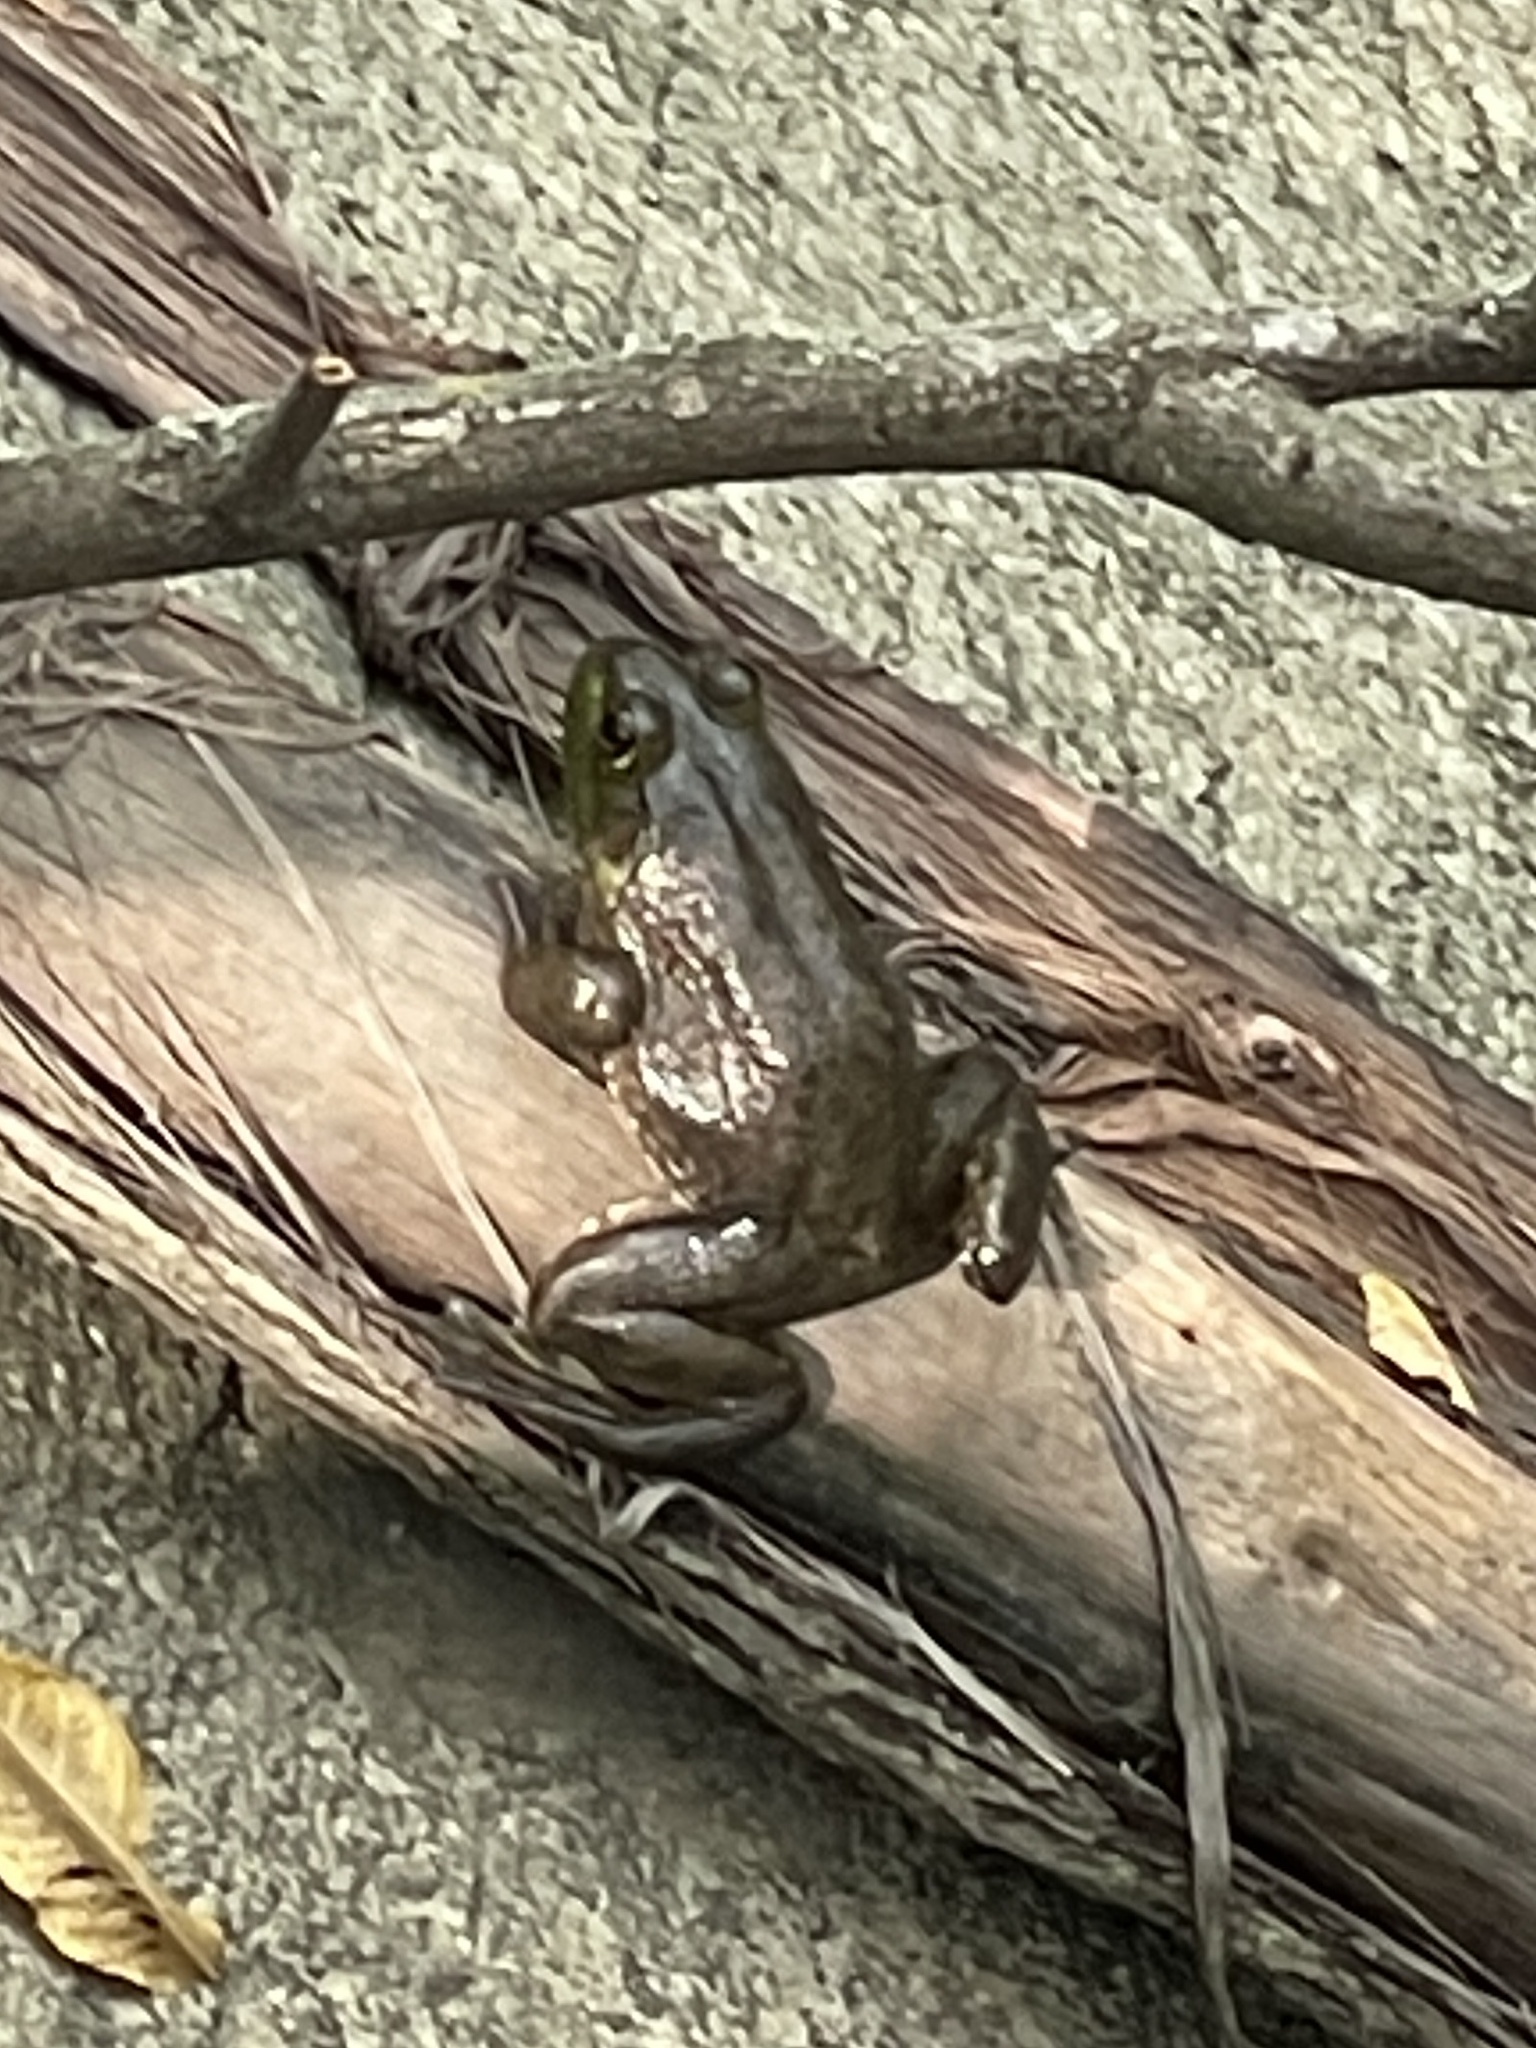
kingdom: Animalia
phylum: Chordata
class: Amphibia
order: Anura
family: Ranidae
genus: Lithobates
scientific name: Lithobates catesbeianus
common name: American bullfrog
